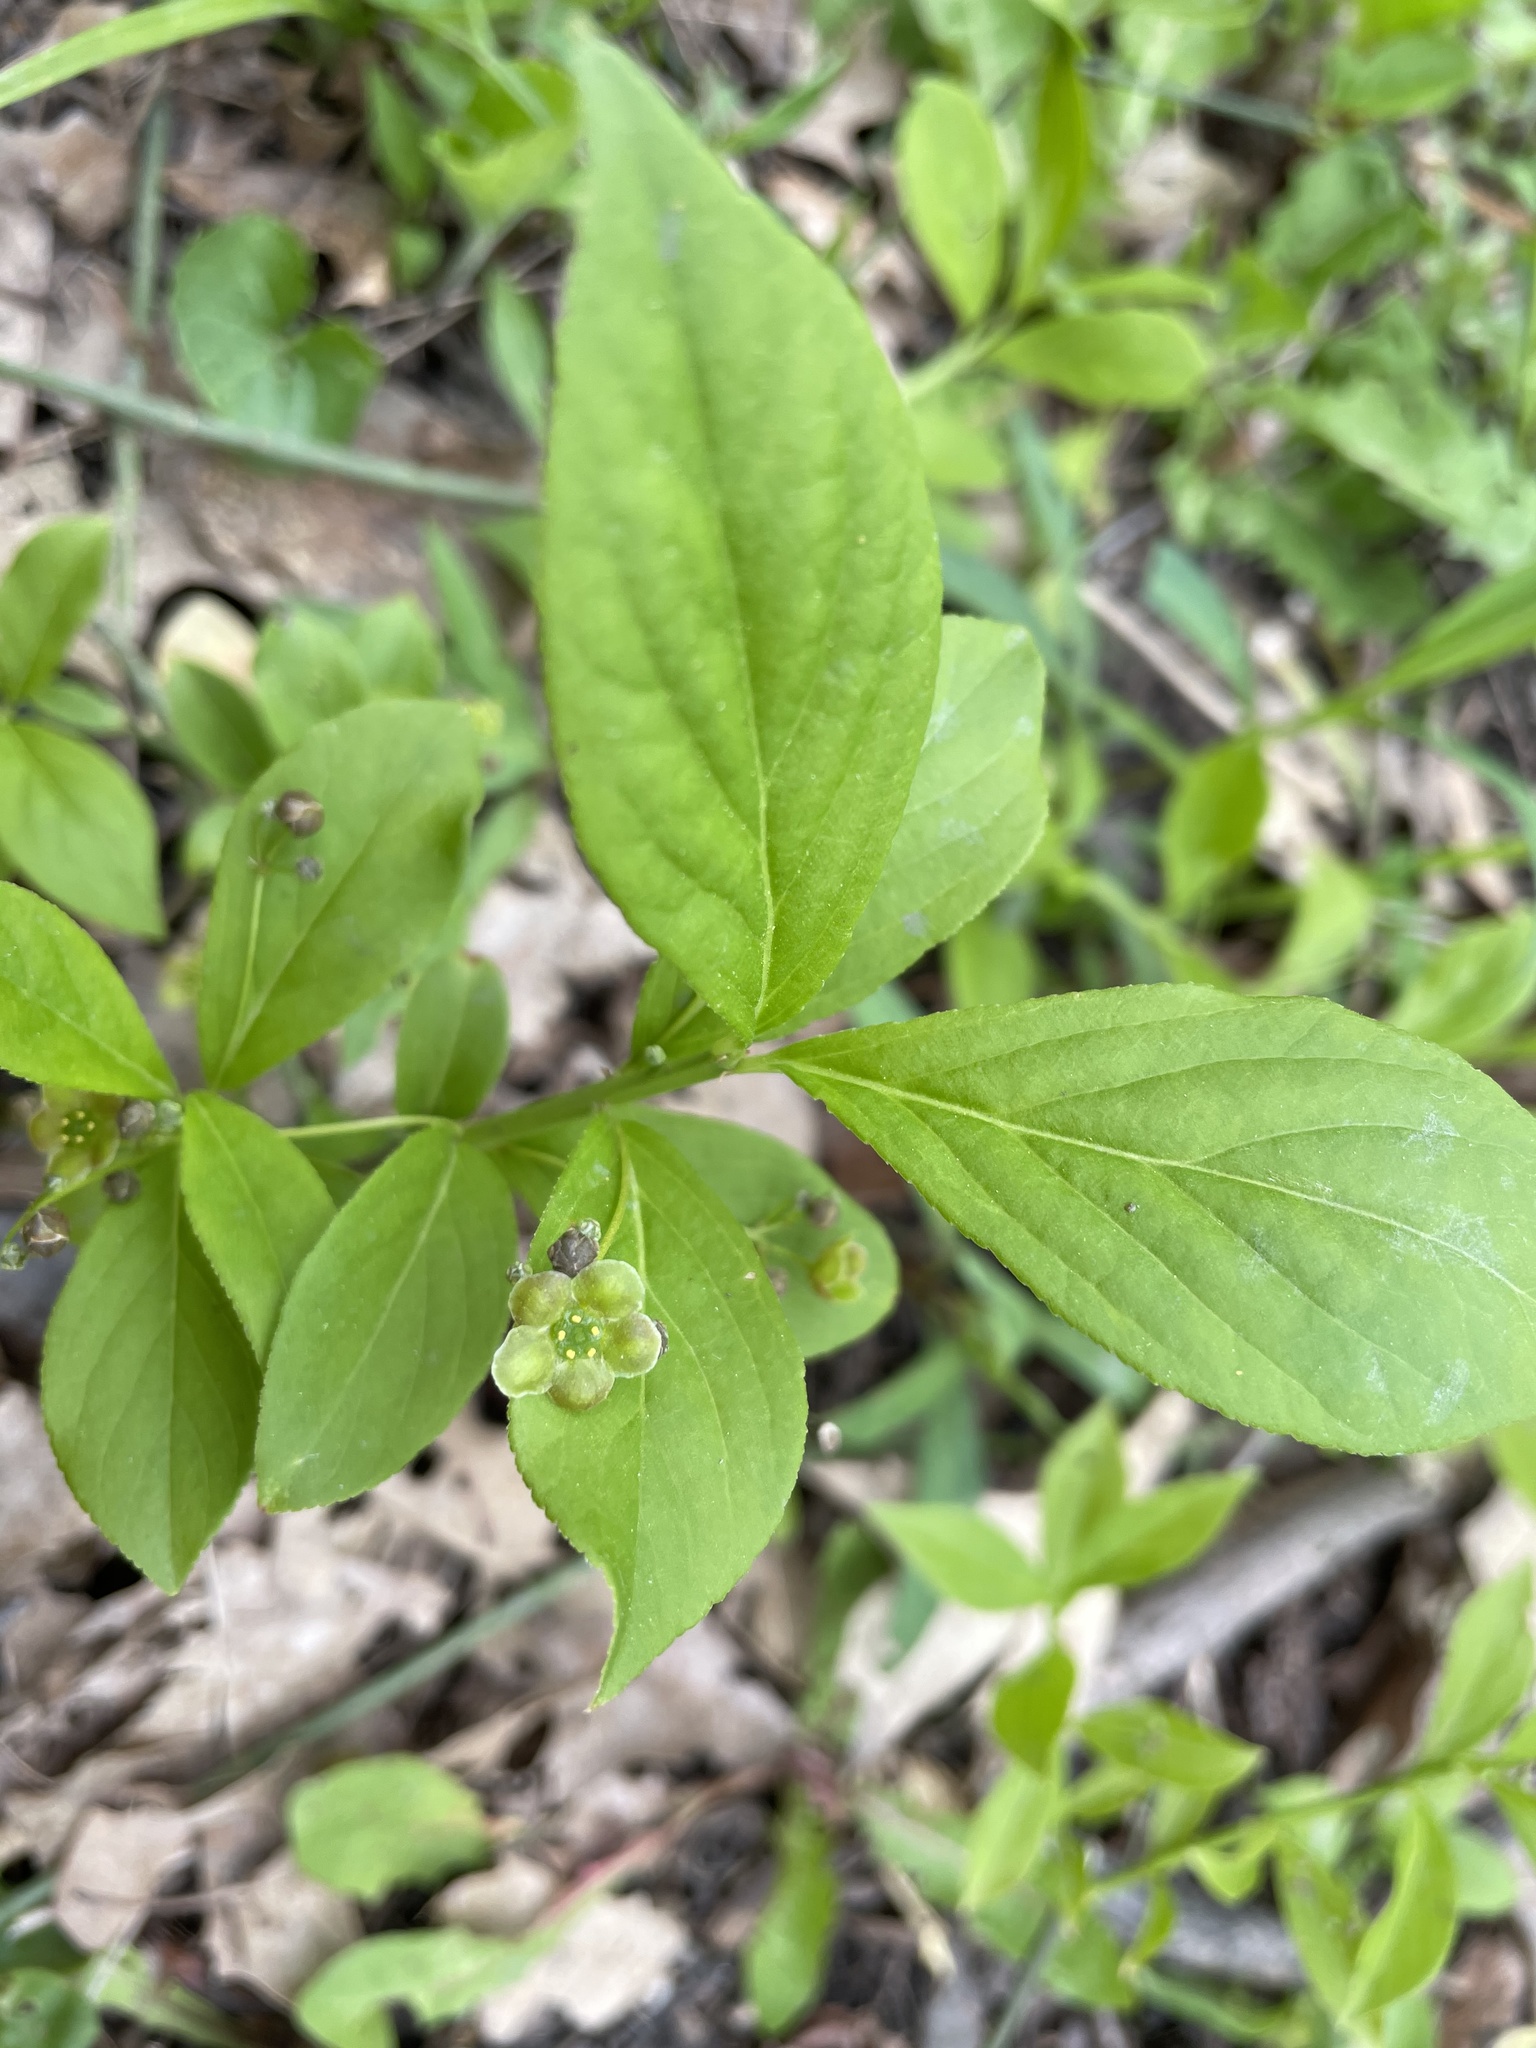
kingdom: Plantae
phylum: Tracheophyta
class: Magnoliopsida
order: Celastrales
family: Celastraceae
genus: Euonymus
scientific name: Euonymus obovatus
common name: Running strawberry-bush
